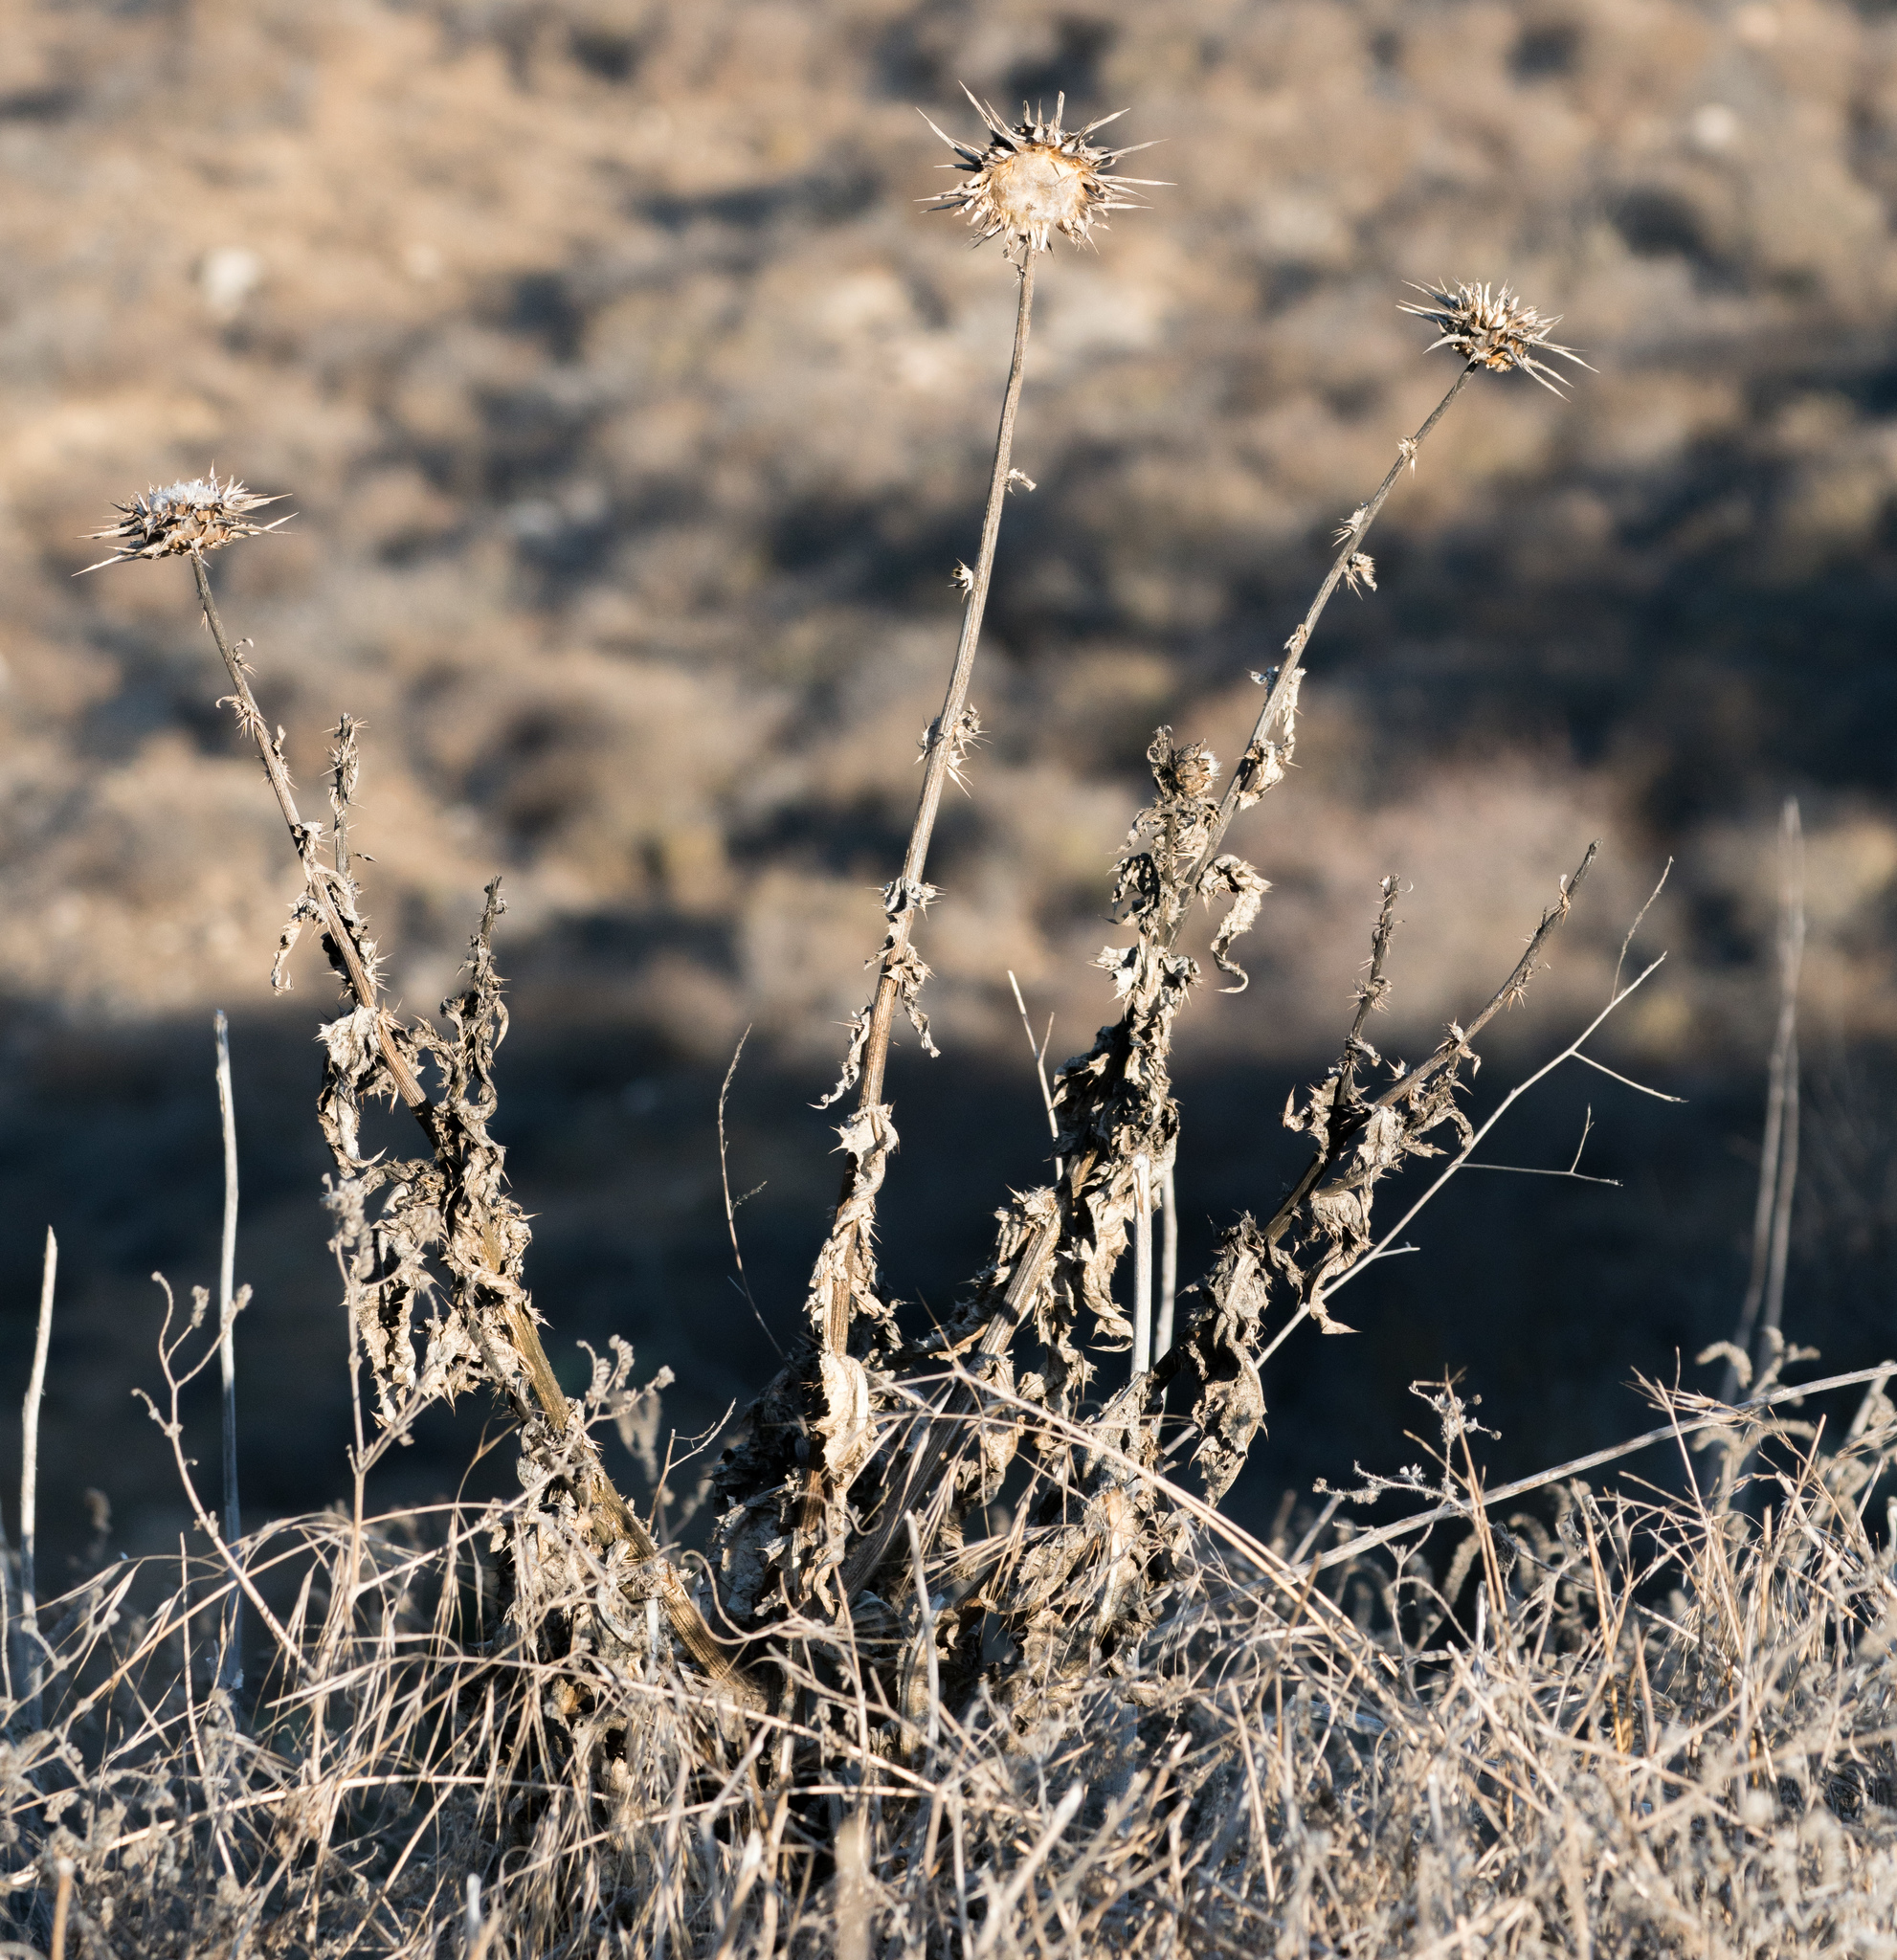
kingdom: Plantae
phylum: Tracheophyta
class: Magnoliopsida
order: Asterales
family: Asteraceae
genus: Silybum
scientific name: Silybum marianum
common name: Milk thistle
